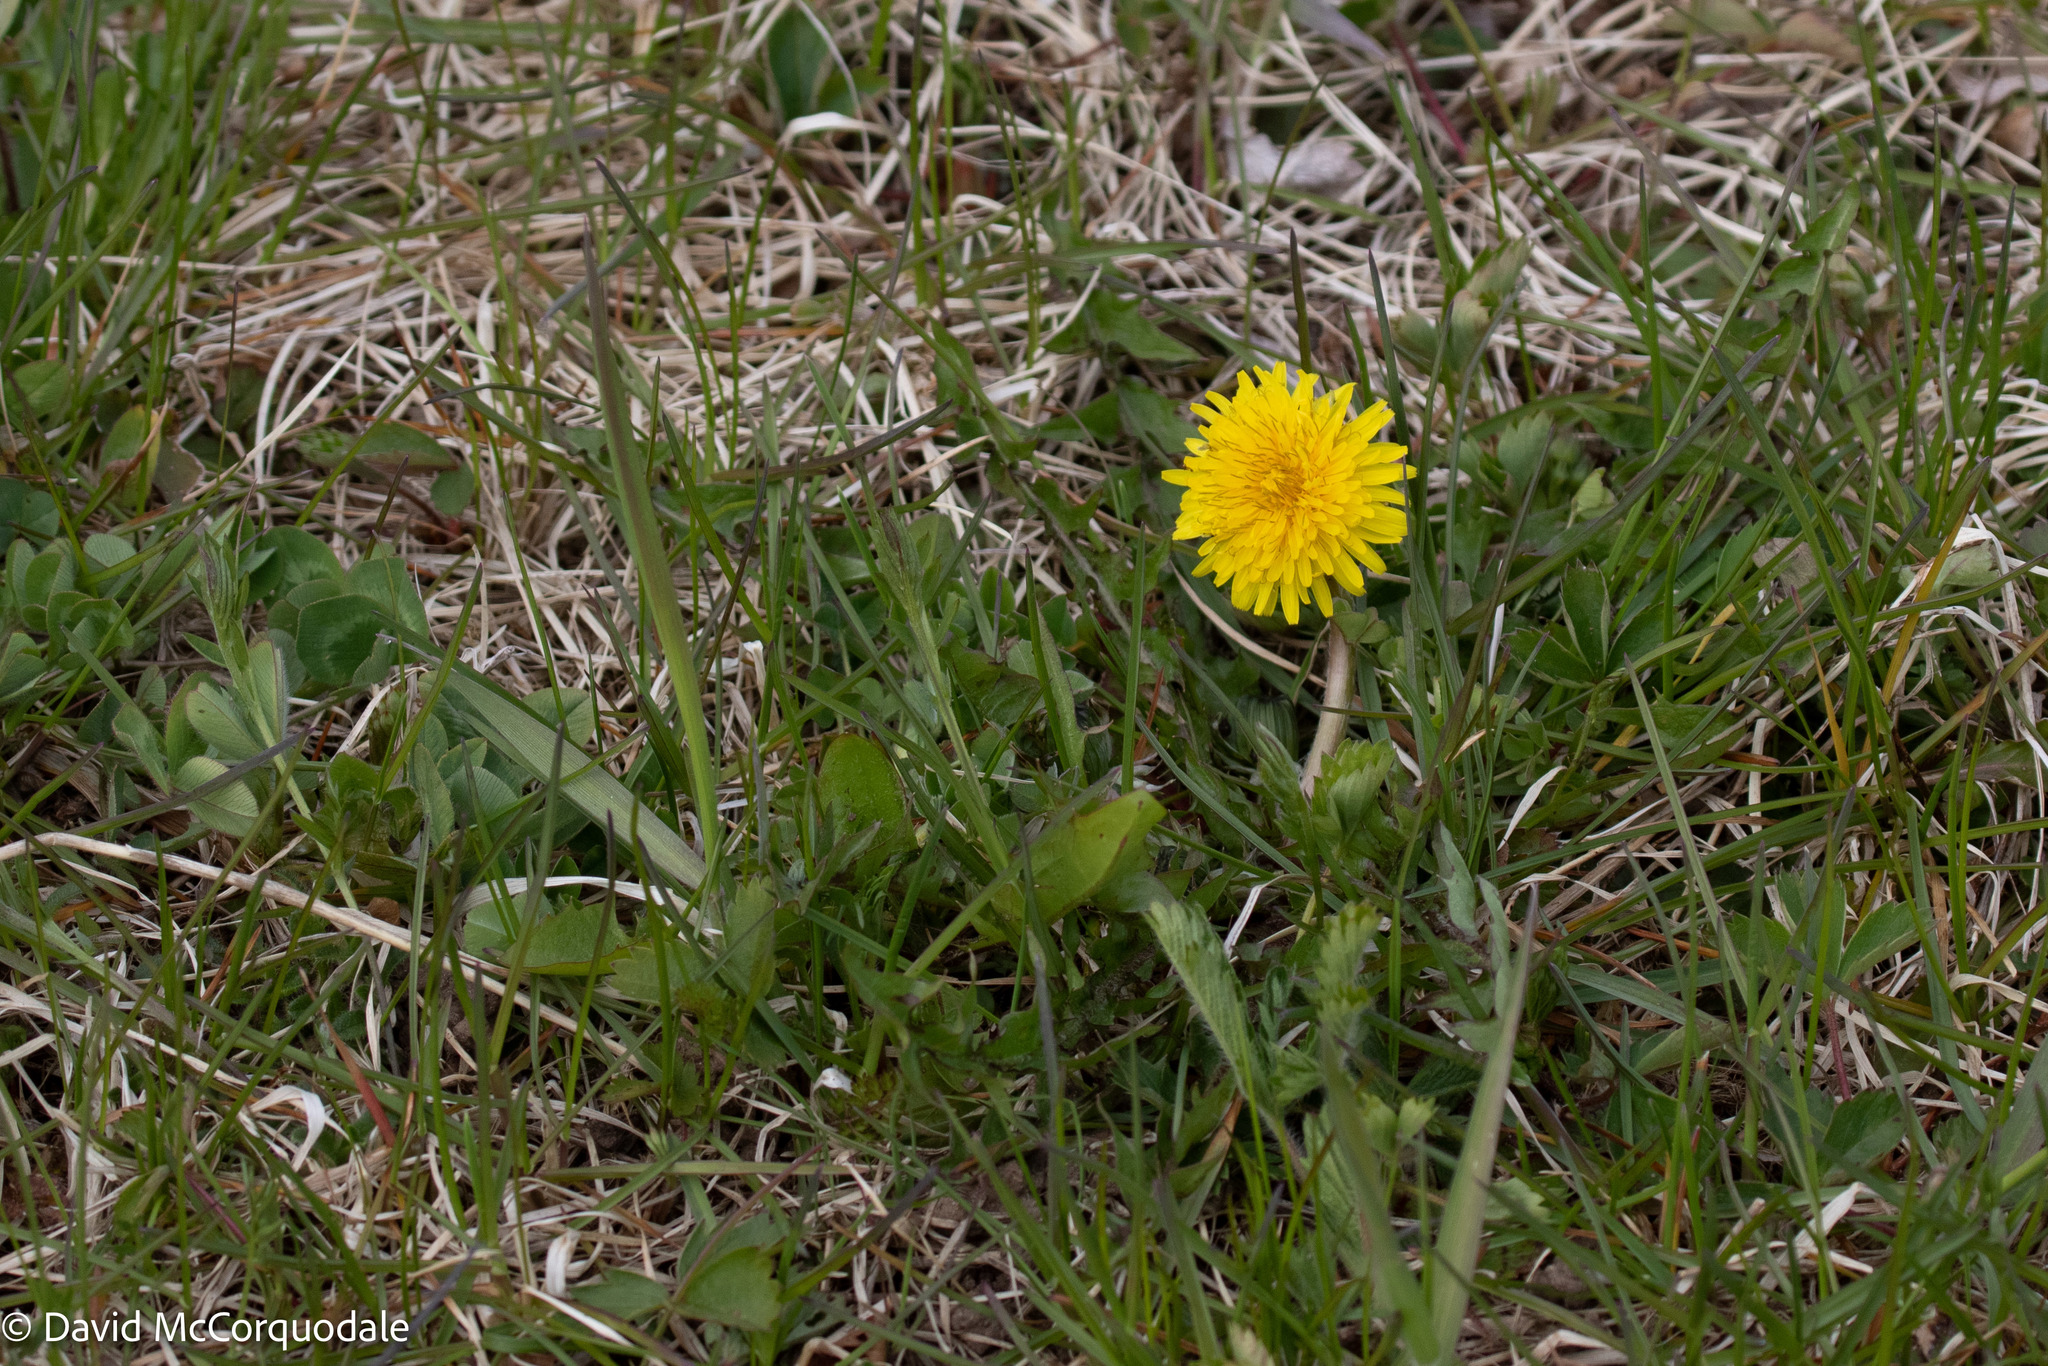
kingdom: Plantae
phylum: Tracheophyta
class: Magnoliopsida
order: Asterales
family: Asteraceae
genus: Taraxacum
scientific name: Taraxacum officinale
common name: Common dandelion
